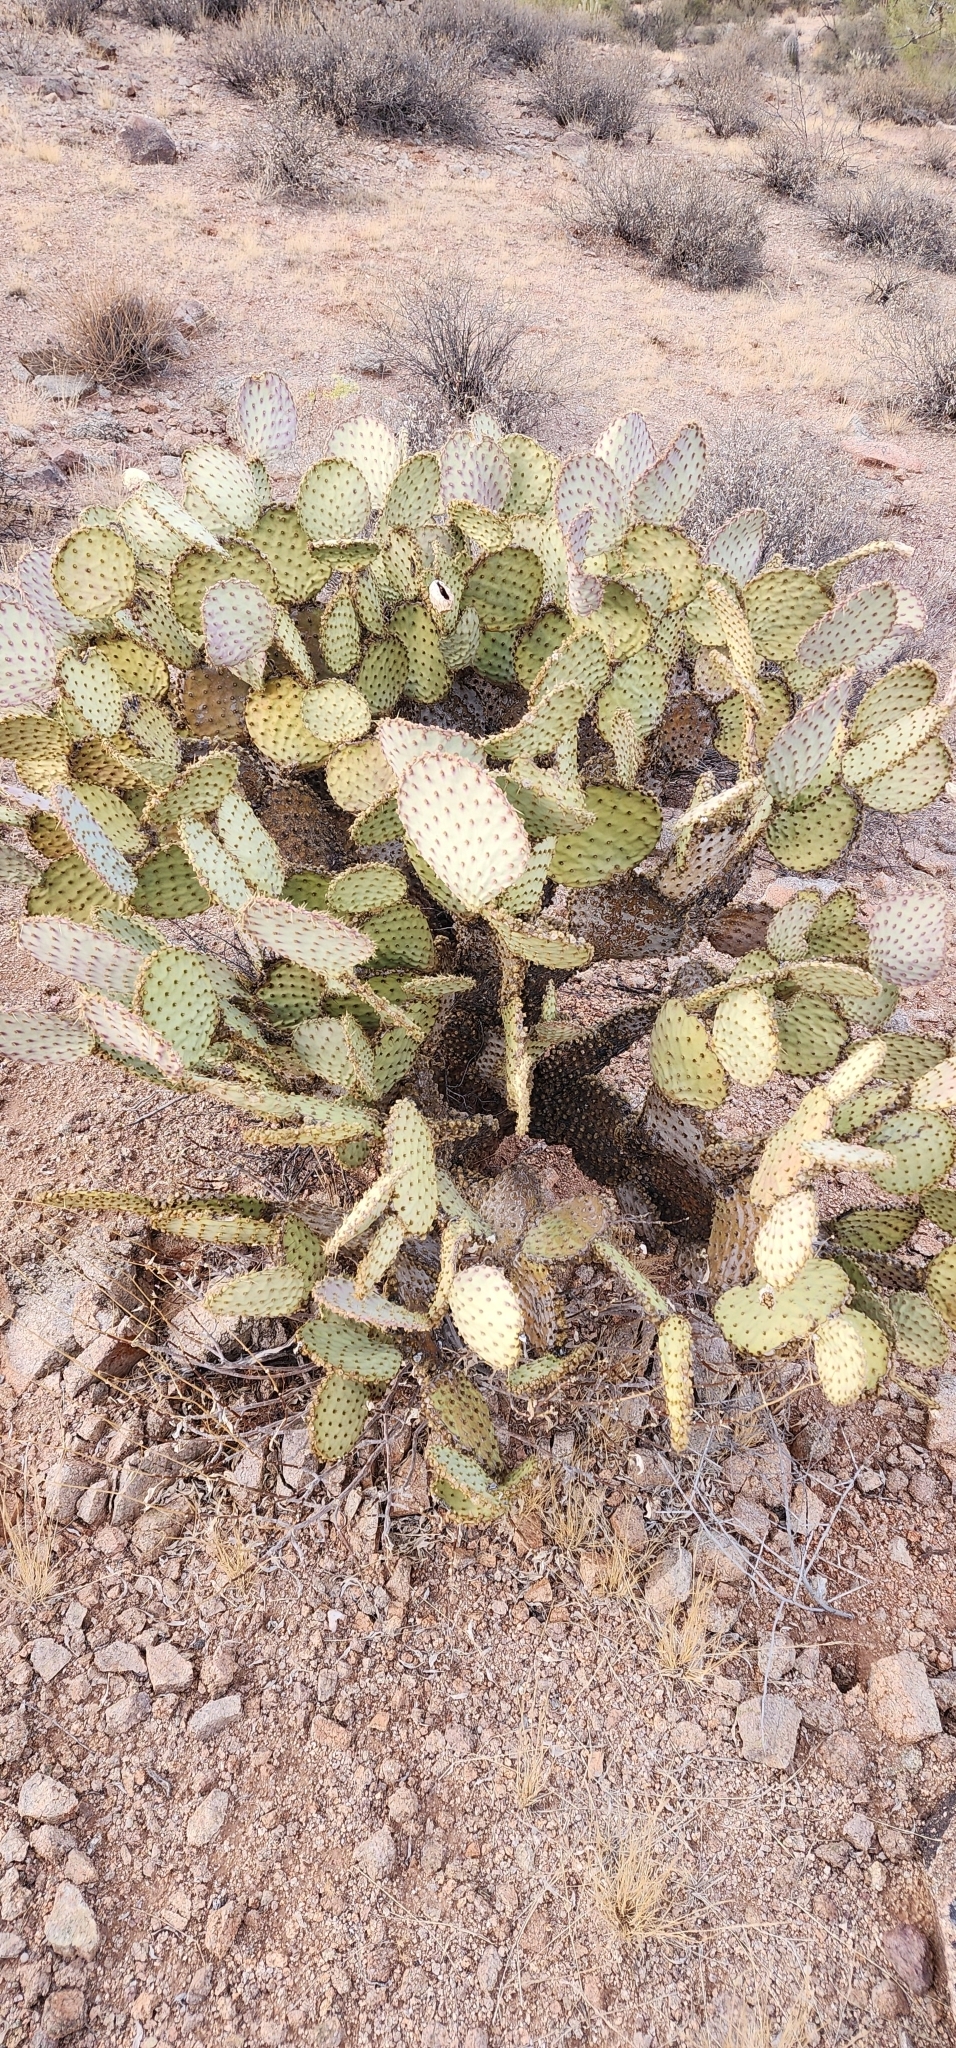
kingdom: Plantae
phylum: Tracheophyta
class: Magnoliopsida
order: Caryophyllales
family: Cactaceae
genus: Opuntia
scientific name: Opuntia chlorotica
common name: Dollar-joint prickly-pear
